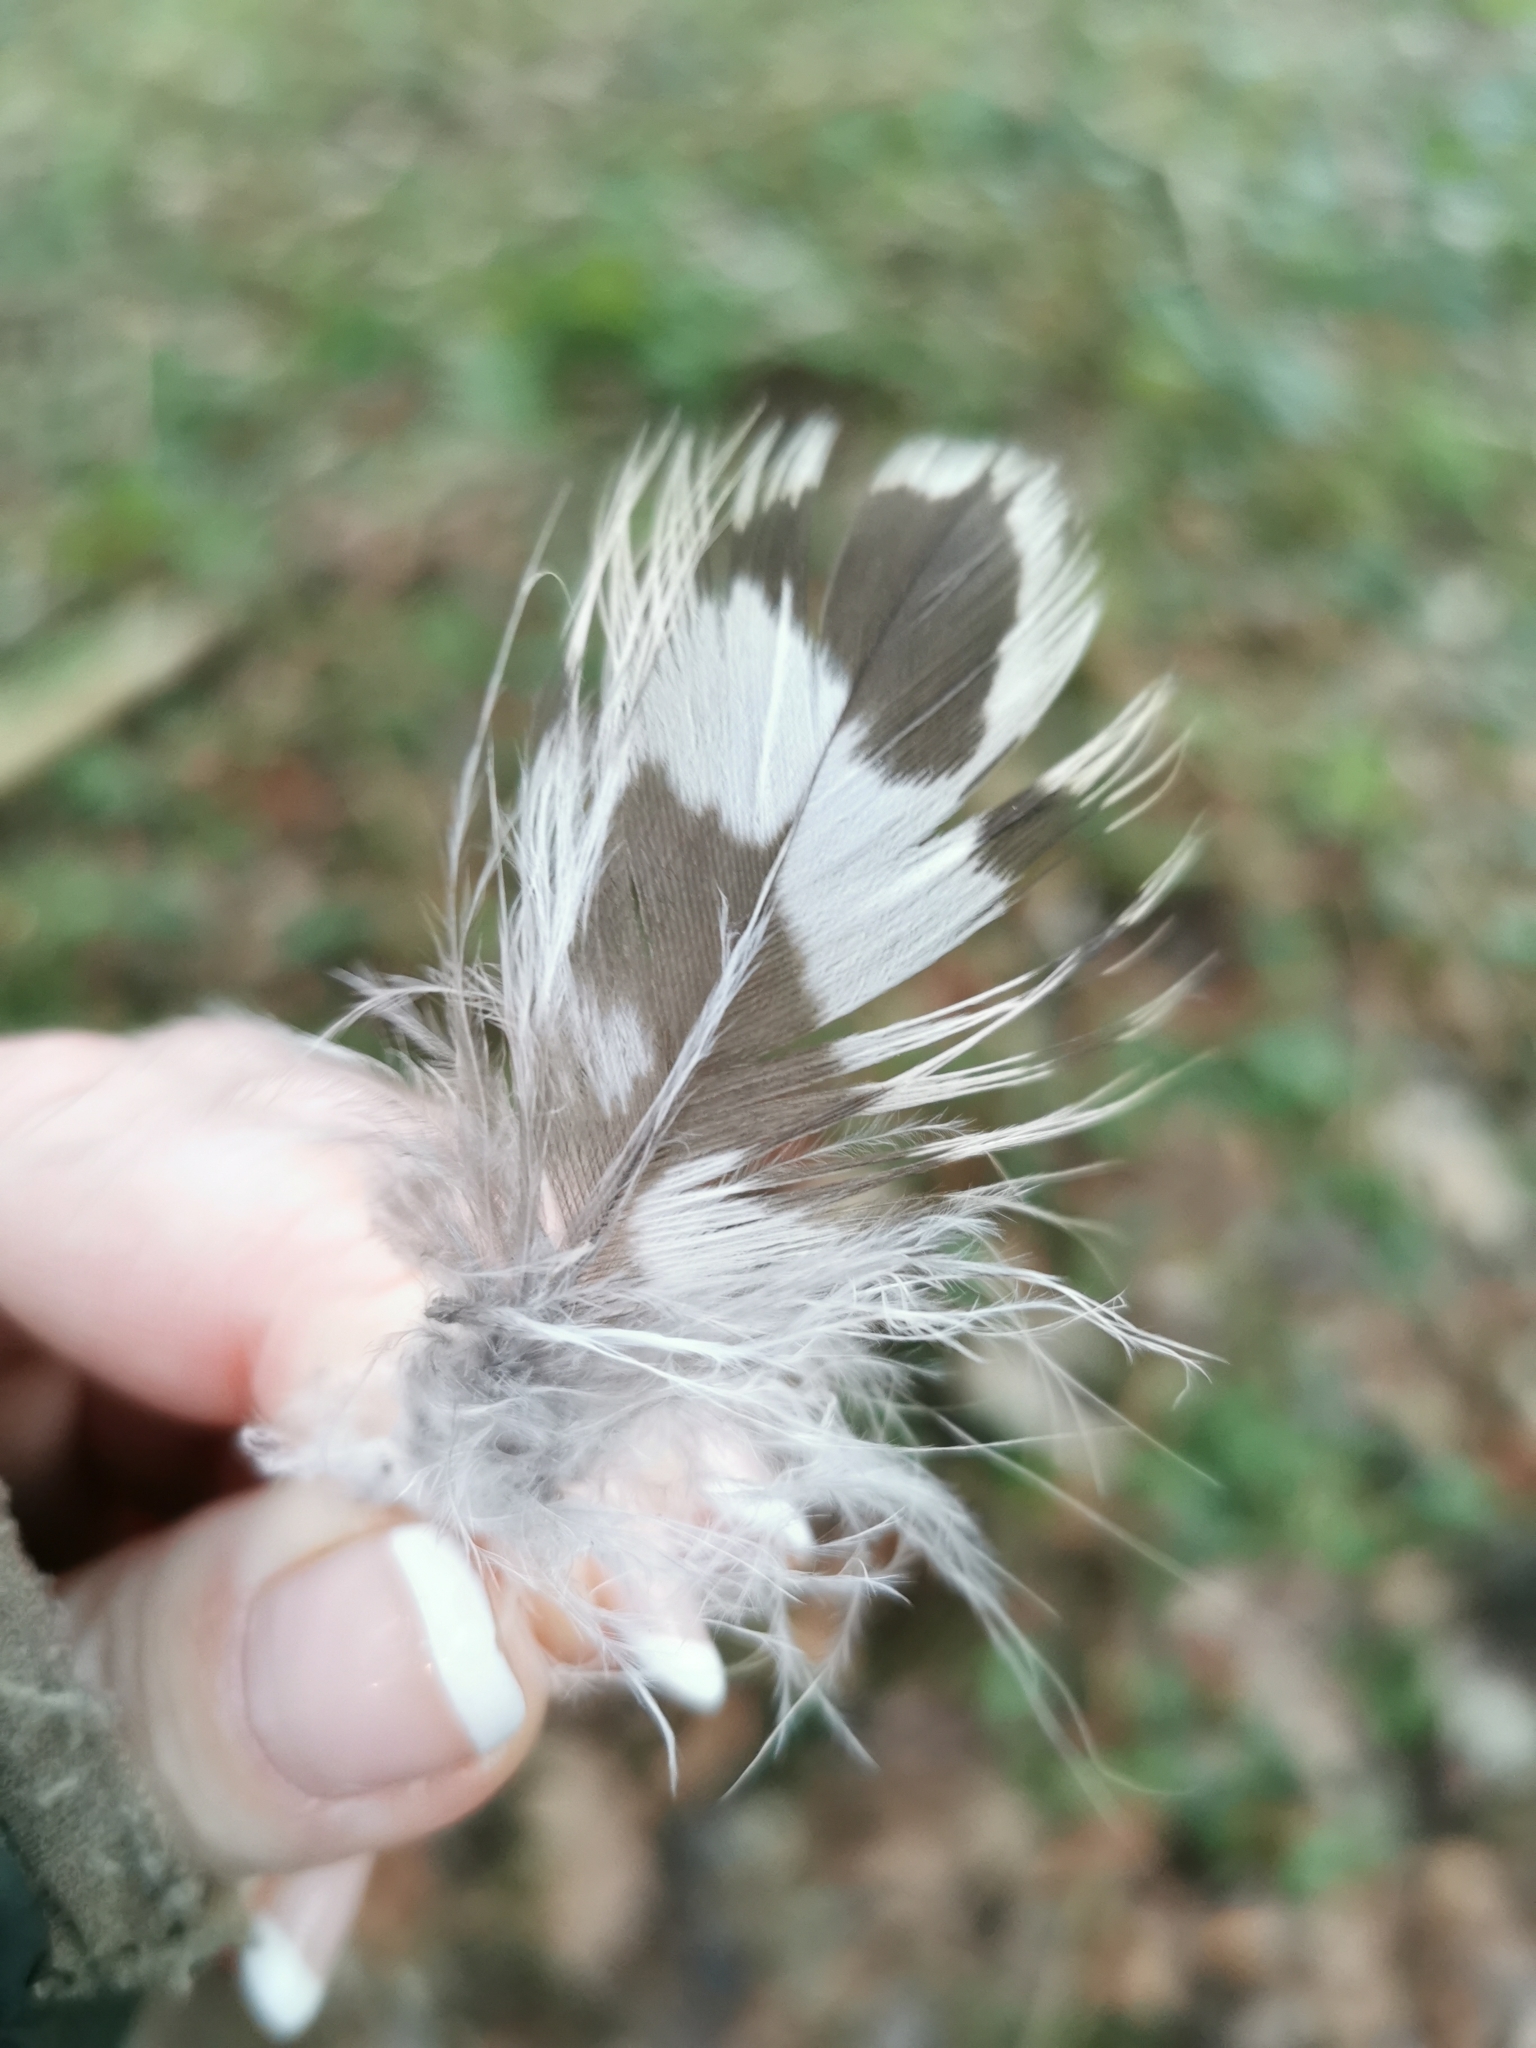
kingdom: Animalia
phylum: Chordata
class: Aves
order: Accipitriformes
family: Accipitridae
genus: Buteo
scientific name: Buteo buteo
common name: Common buzzard
